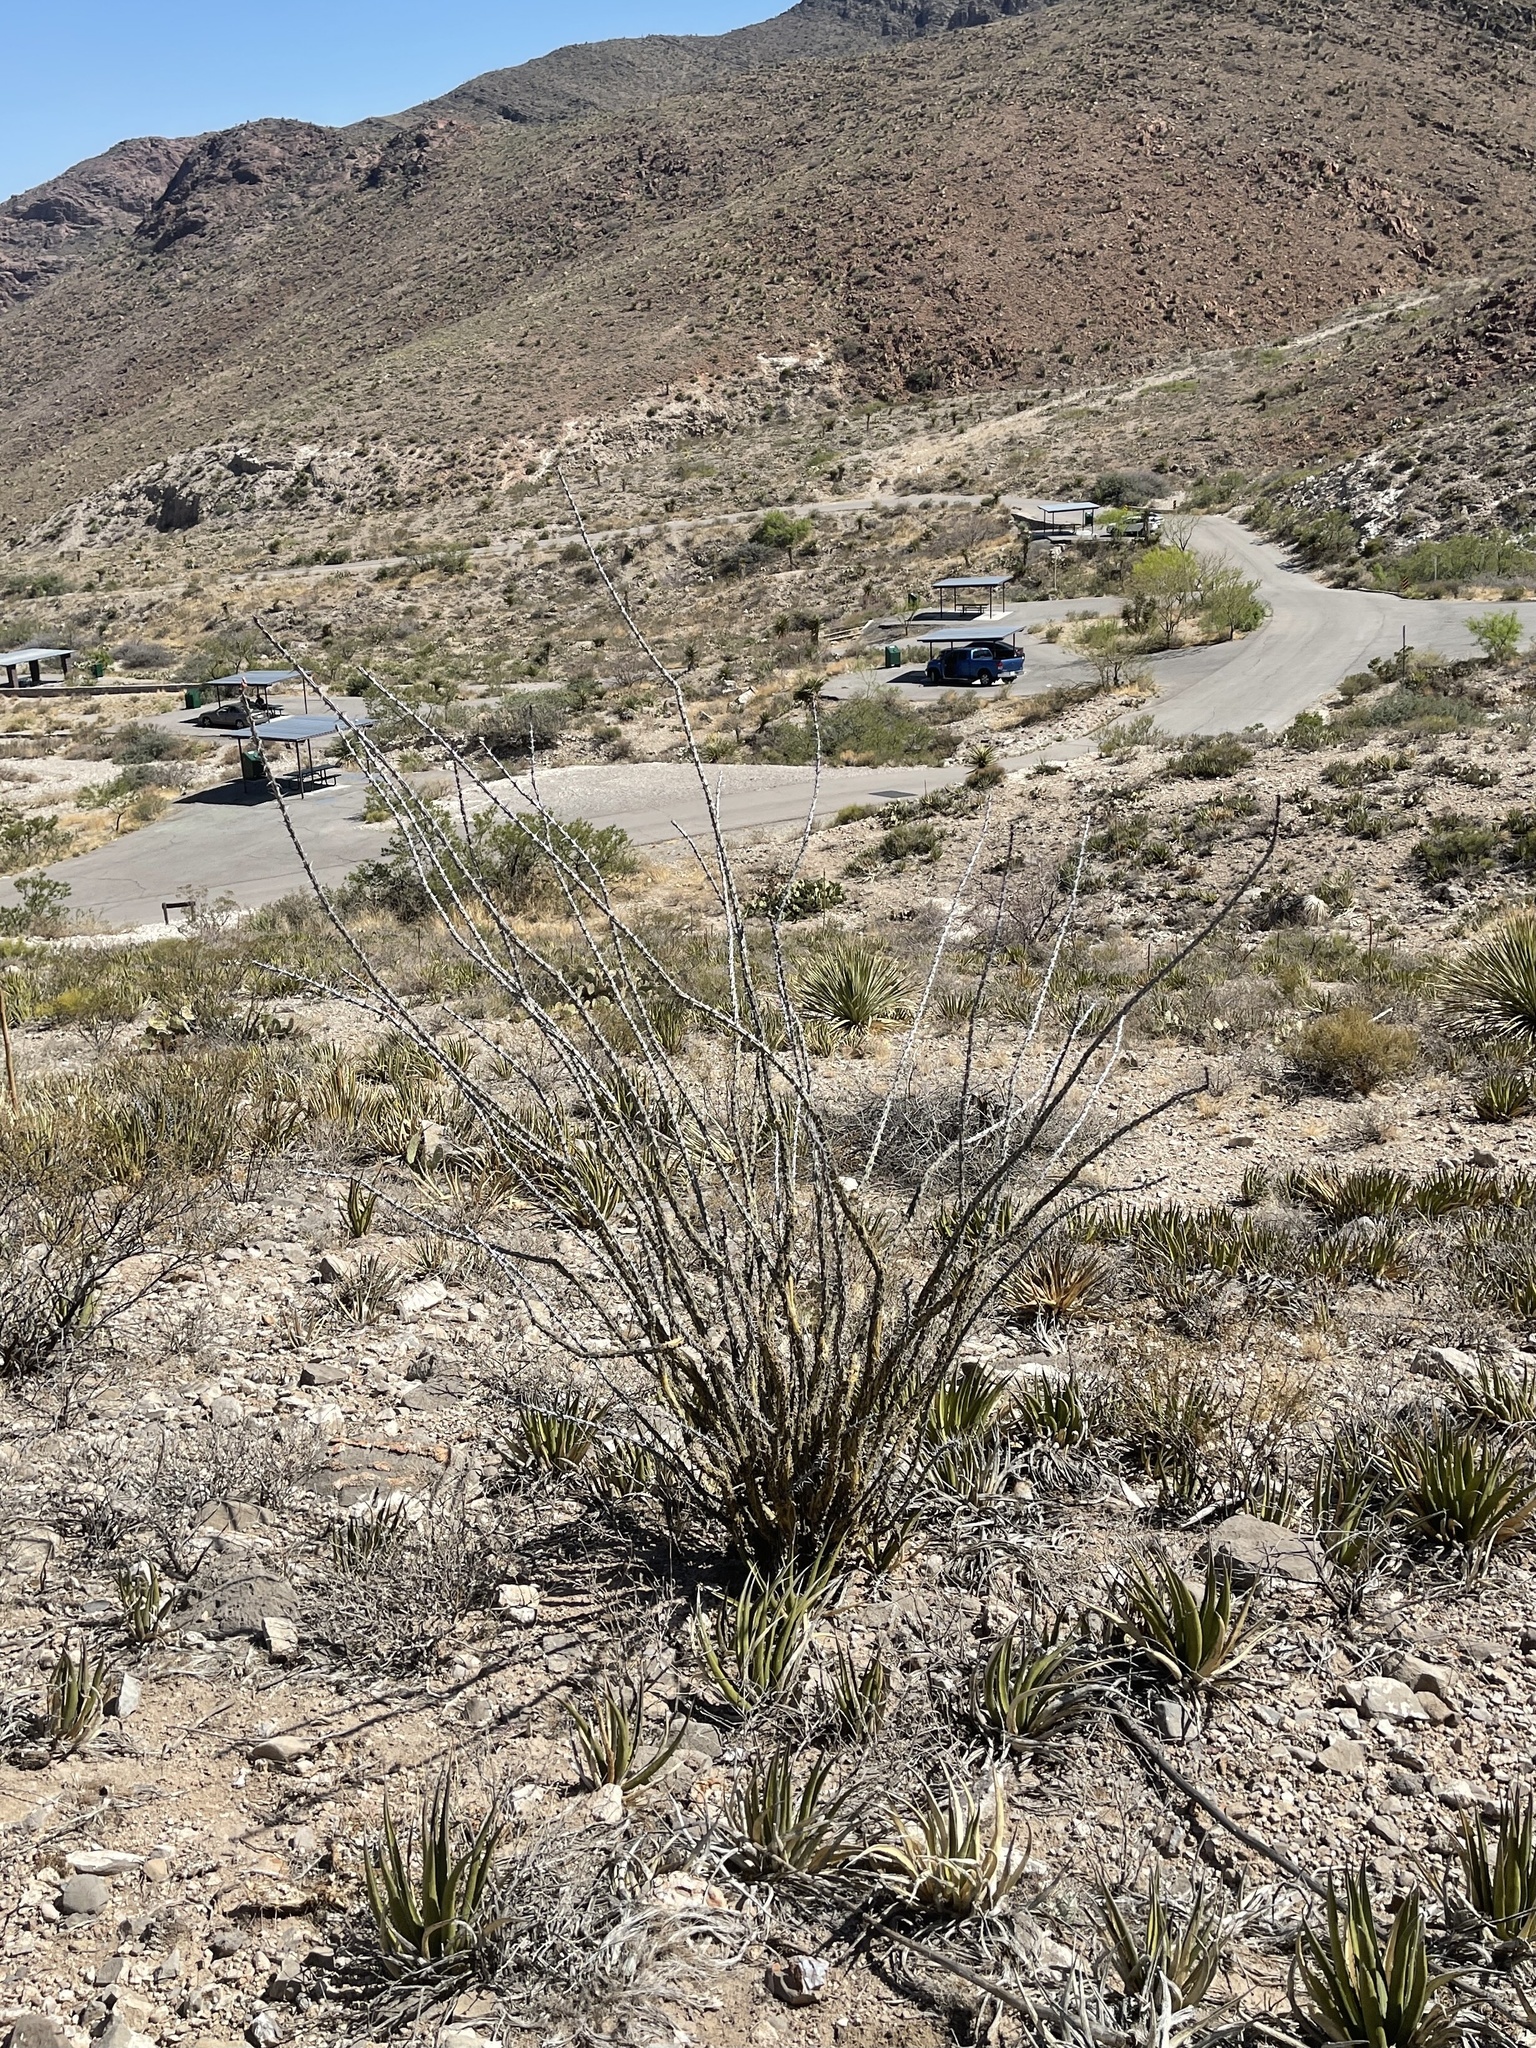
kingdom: Plantae
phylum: Tracheophyta
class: Magnoliopsida
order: Ericales
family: Fouquieriaceae
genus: Fouquieria
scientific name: Fouquieria splendens
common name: Vine-cactus
